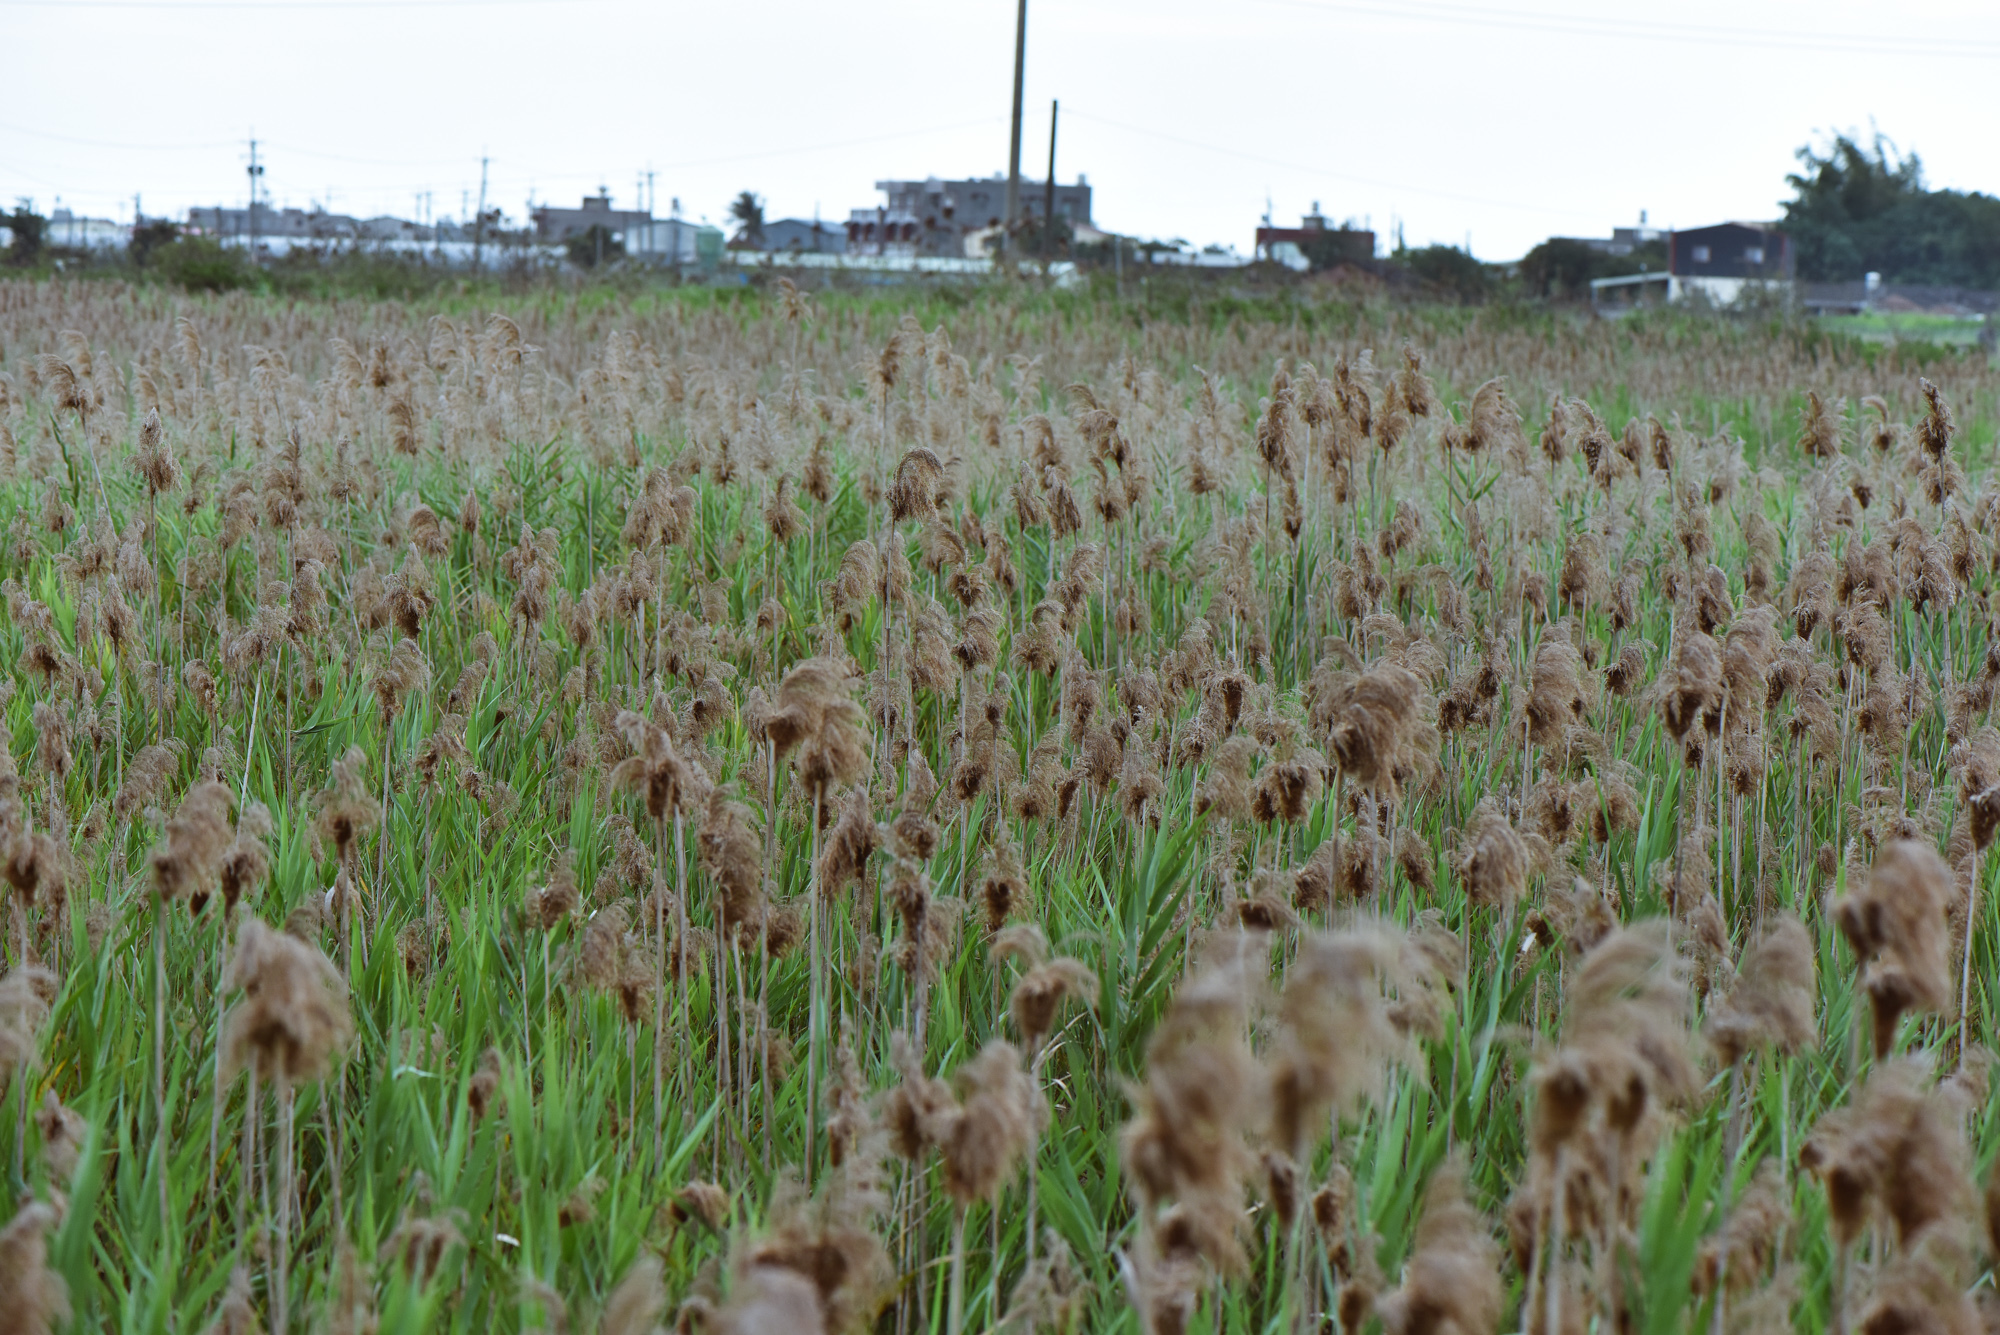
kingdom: Plantae
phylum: Tracheophyta
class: Liliopsida
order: Poales
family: Poaceae
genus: Phragmites
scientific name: Phragmites australis
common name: Common reed
